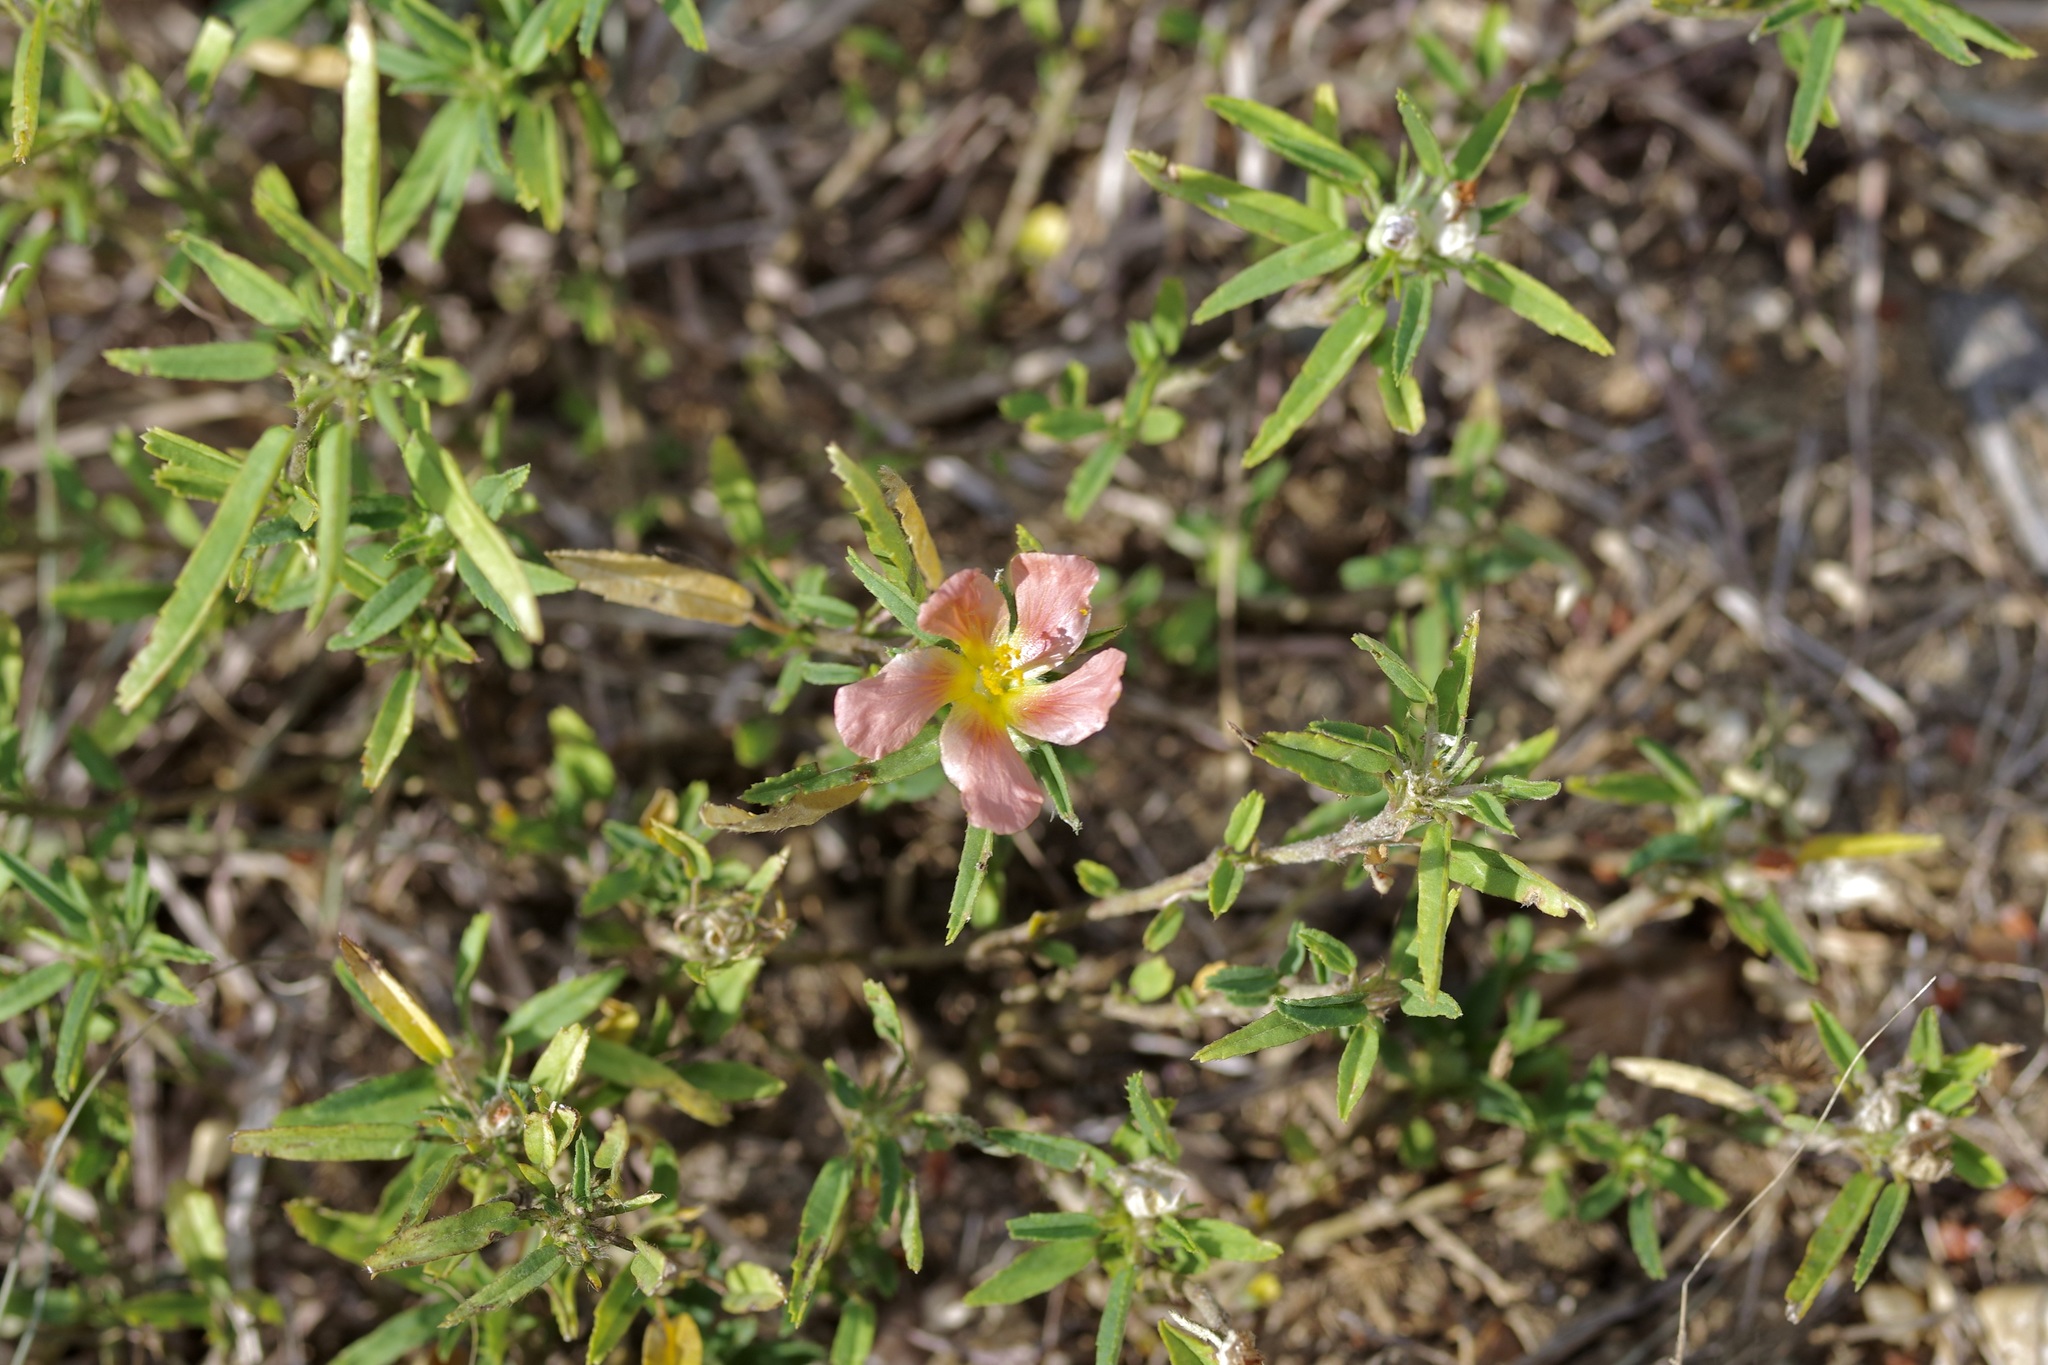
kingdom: Plantae
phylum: Tracheophyta
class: Magnoliopsida
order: Malvales
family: Malvaceae
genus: Sida
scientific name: Sida ciliaris
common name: Bracted fanpetals
